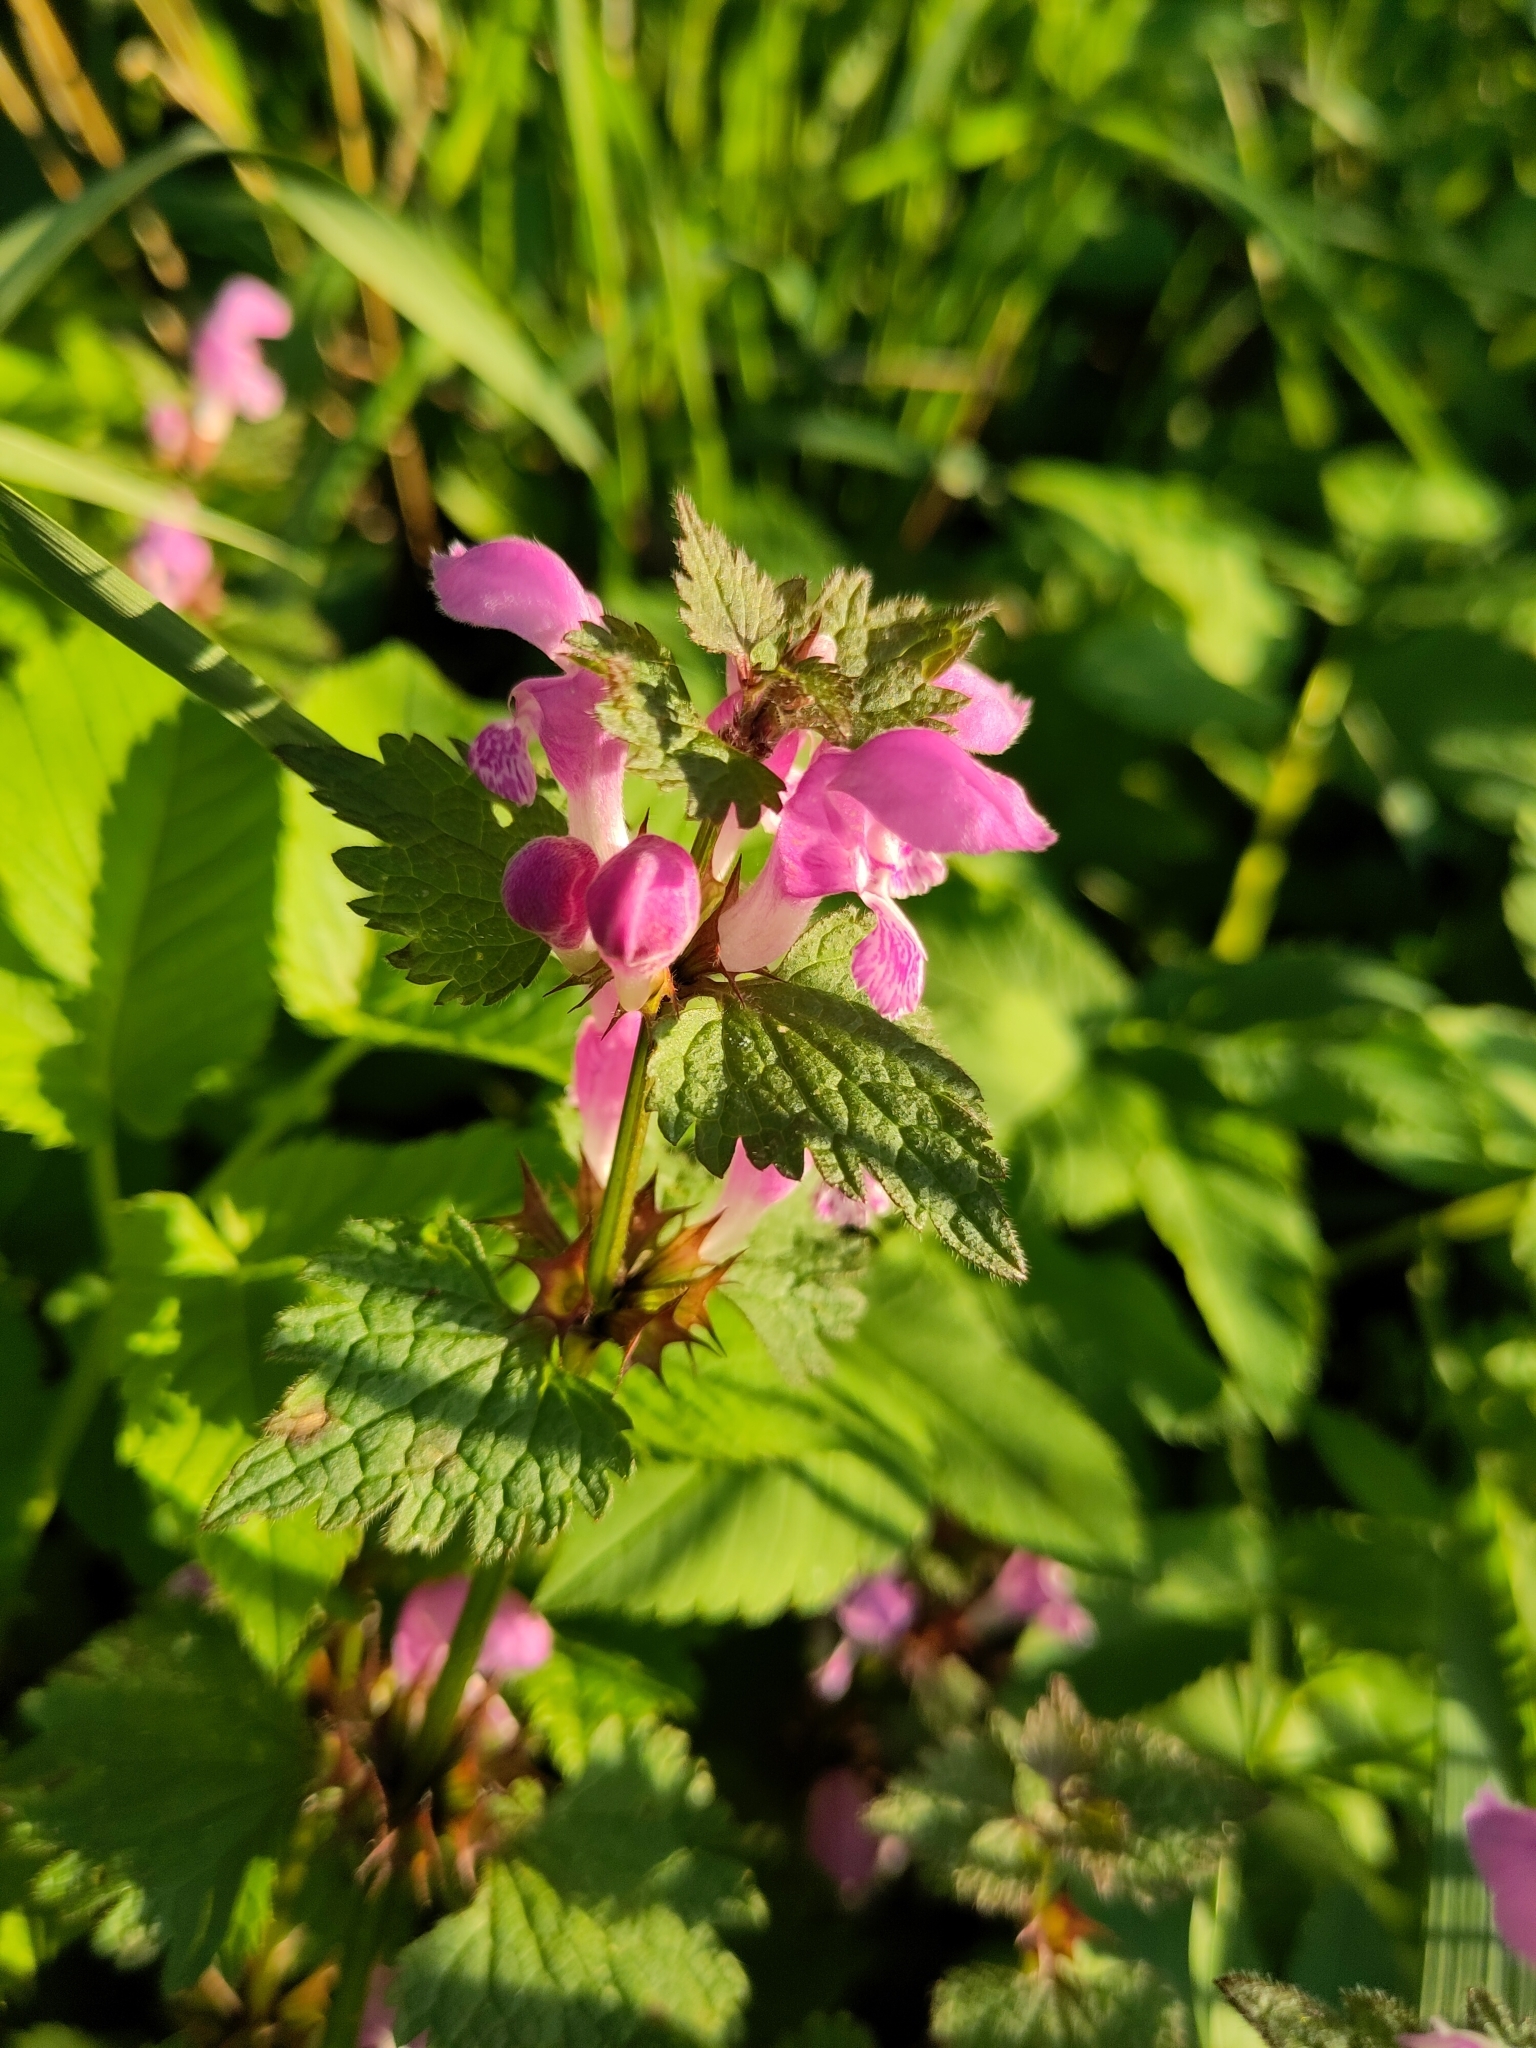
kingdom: Plantae
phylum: Tracheophyta
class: Magnoliopsida
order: Lamiales
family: Lamiaceae
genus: Lamium
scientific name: Lamium maculatum
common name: Spotted dead-nettle
